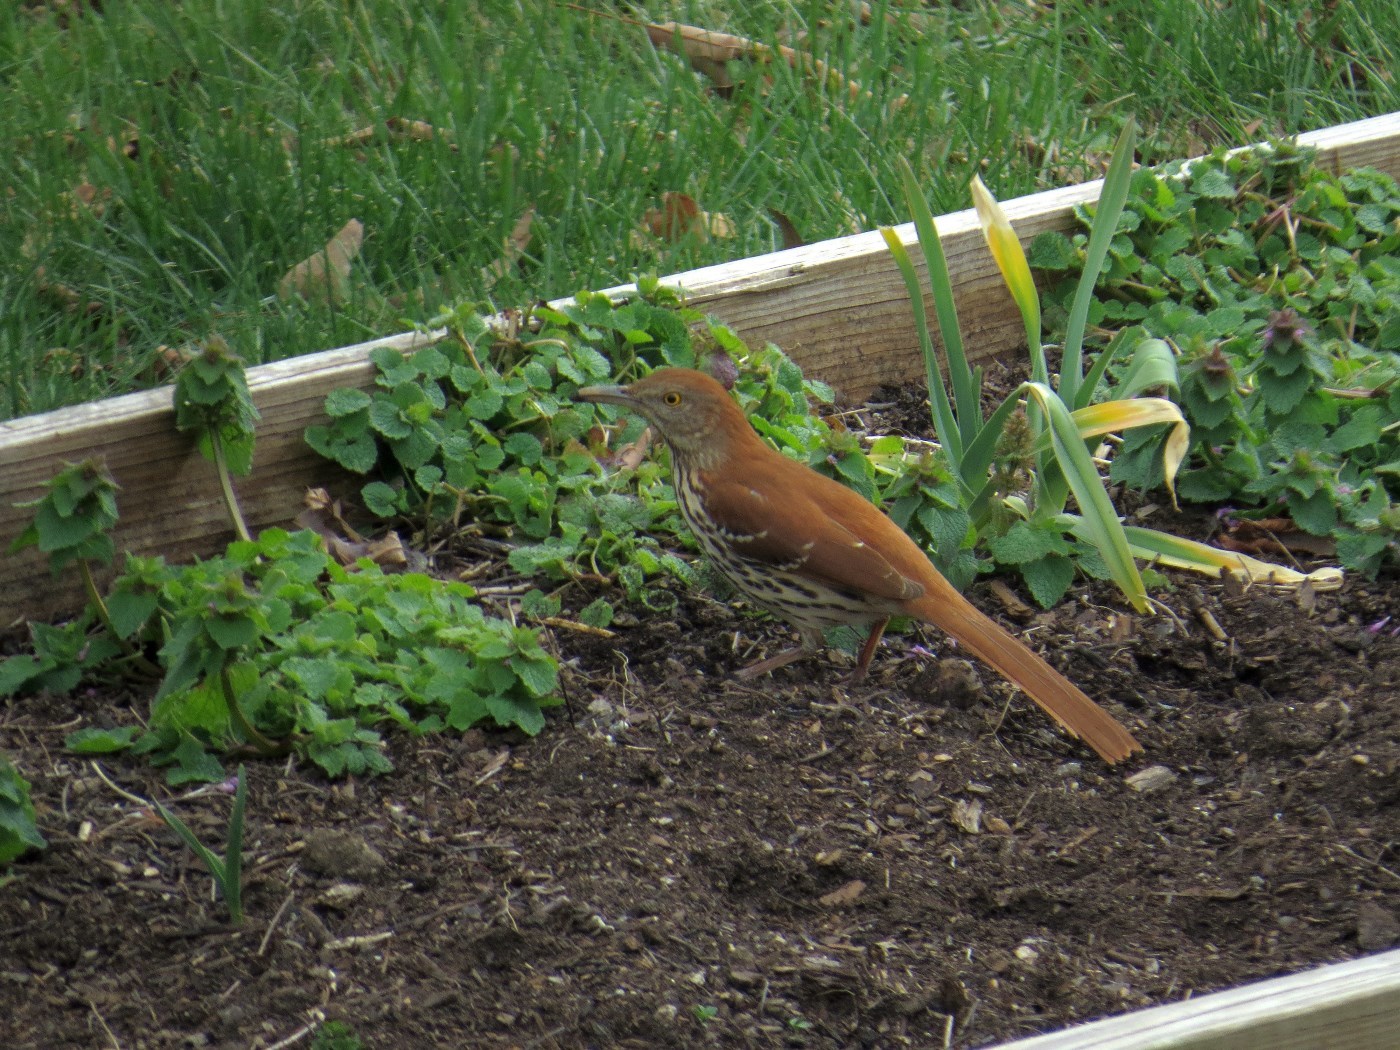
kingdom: Animalia
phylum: Chordata
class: Aves
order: Passeriformes
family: Mimidae
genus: Toxostoma
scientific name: Toxostoma rufum
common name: Brown thrasher
